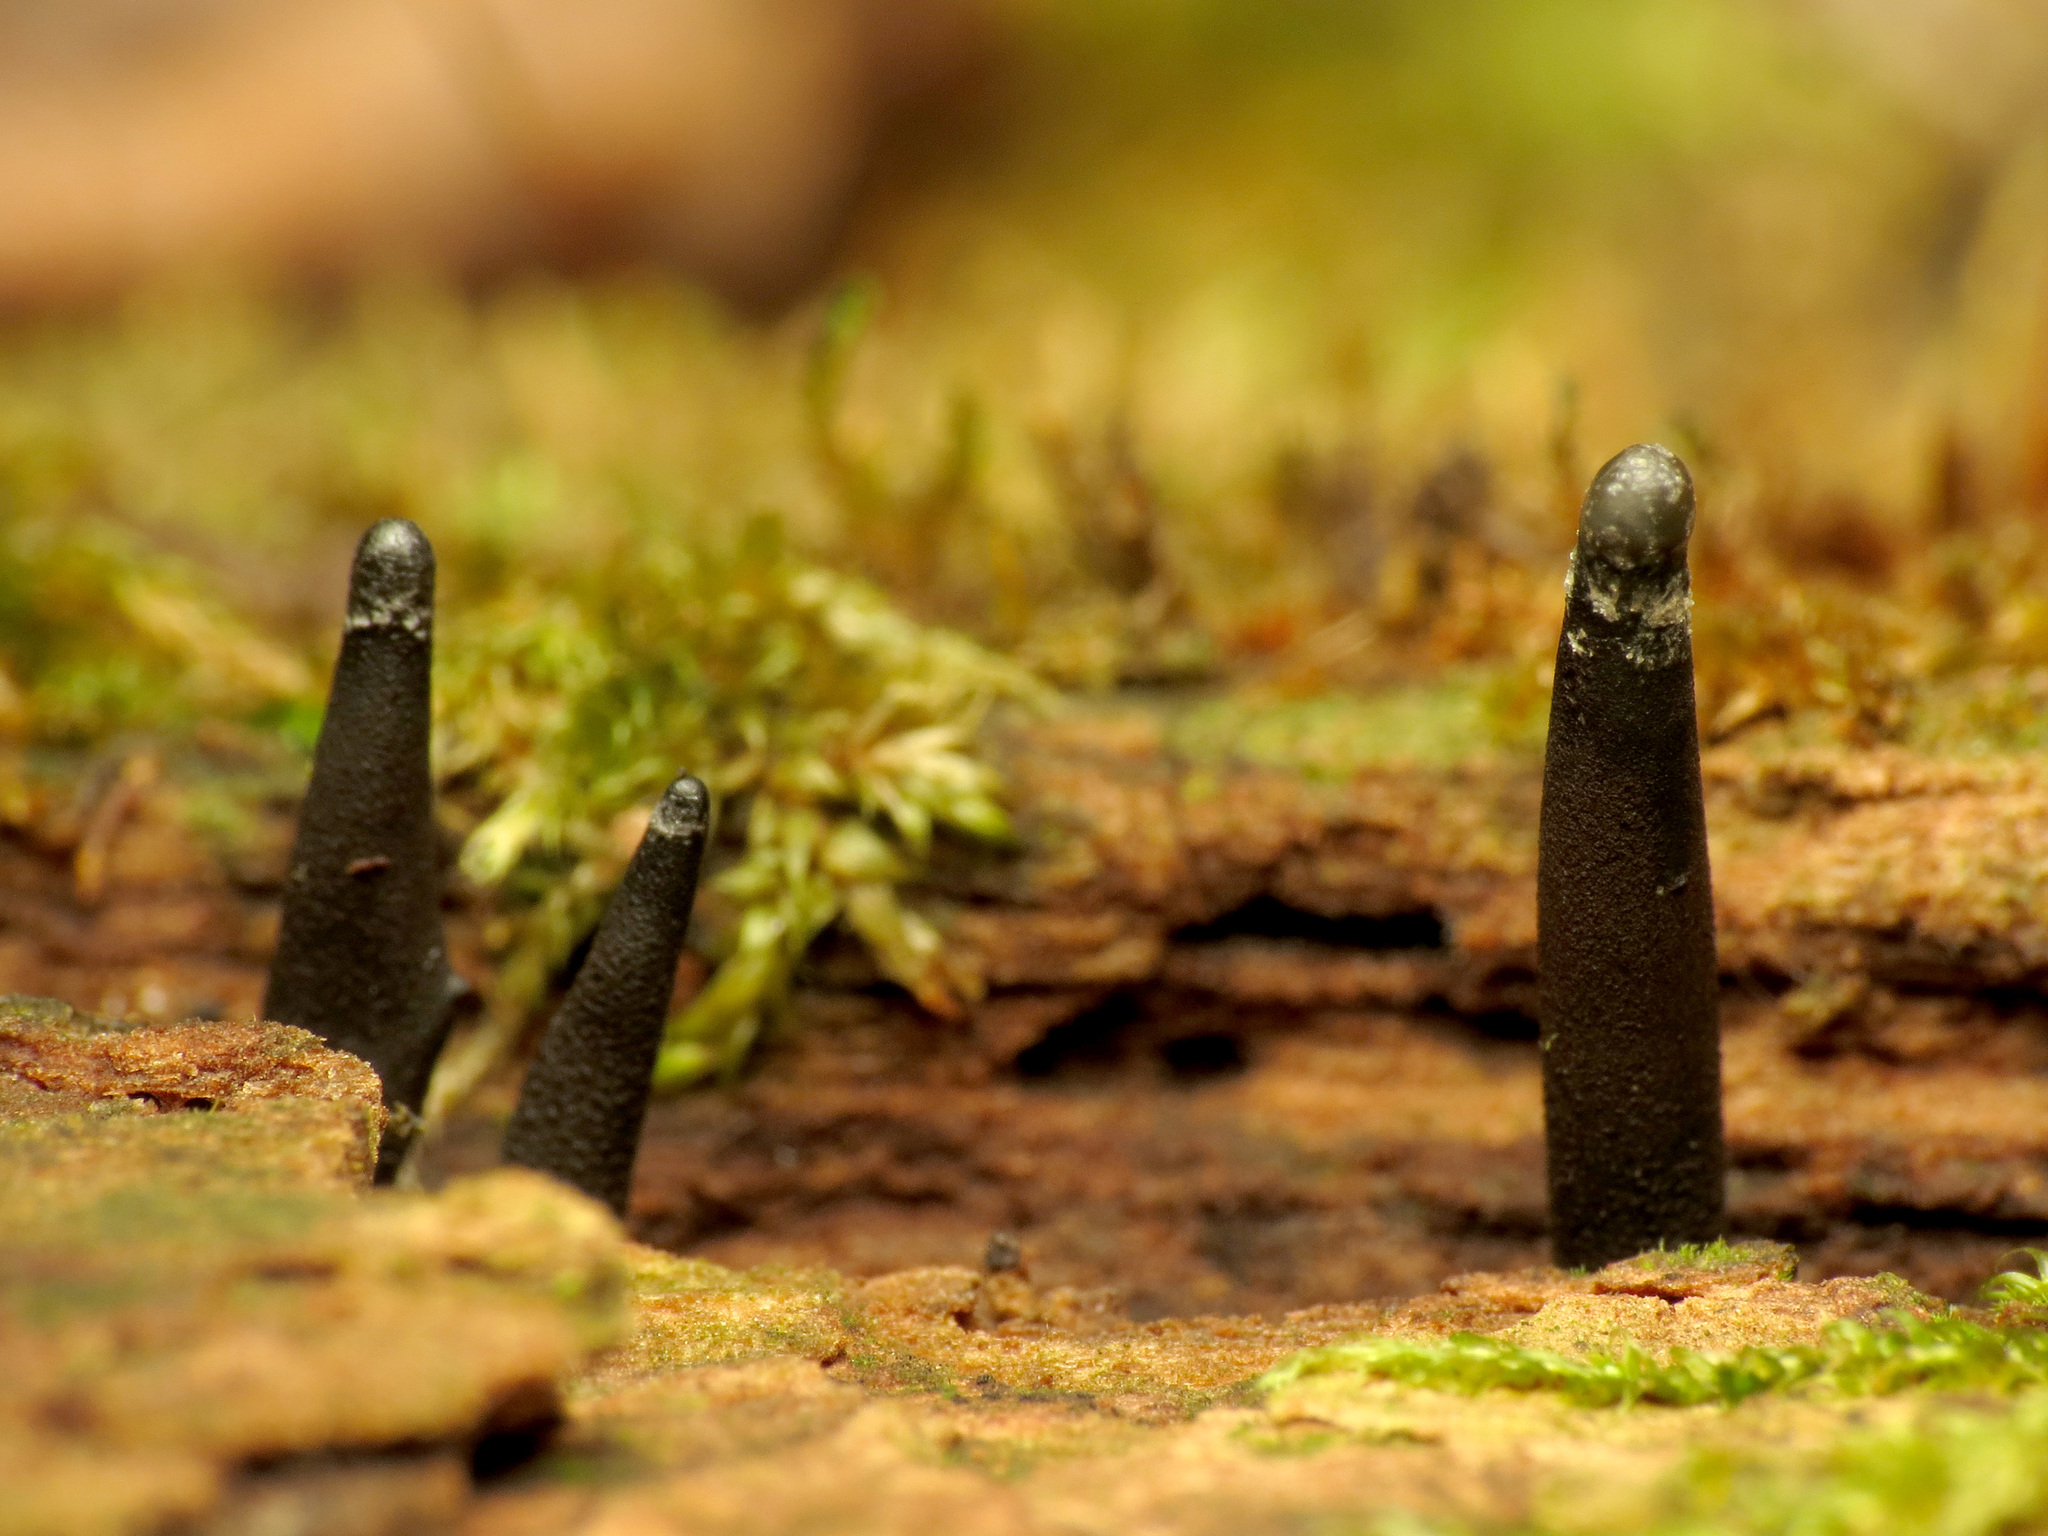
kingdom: Fungi
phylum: Ascomycota
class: Leotiomycetes
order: Helotiales
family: Bulgariaceae
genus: Holwaya
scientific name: Holwaya mucida
